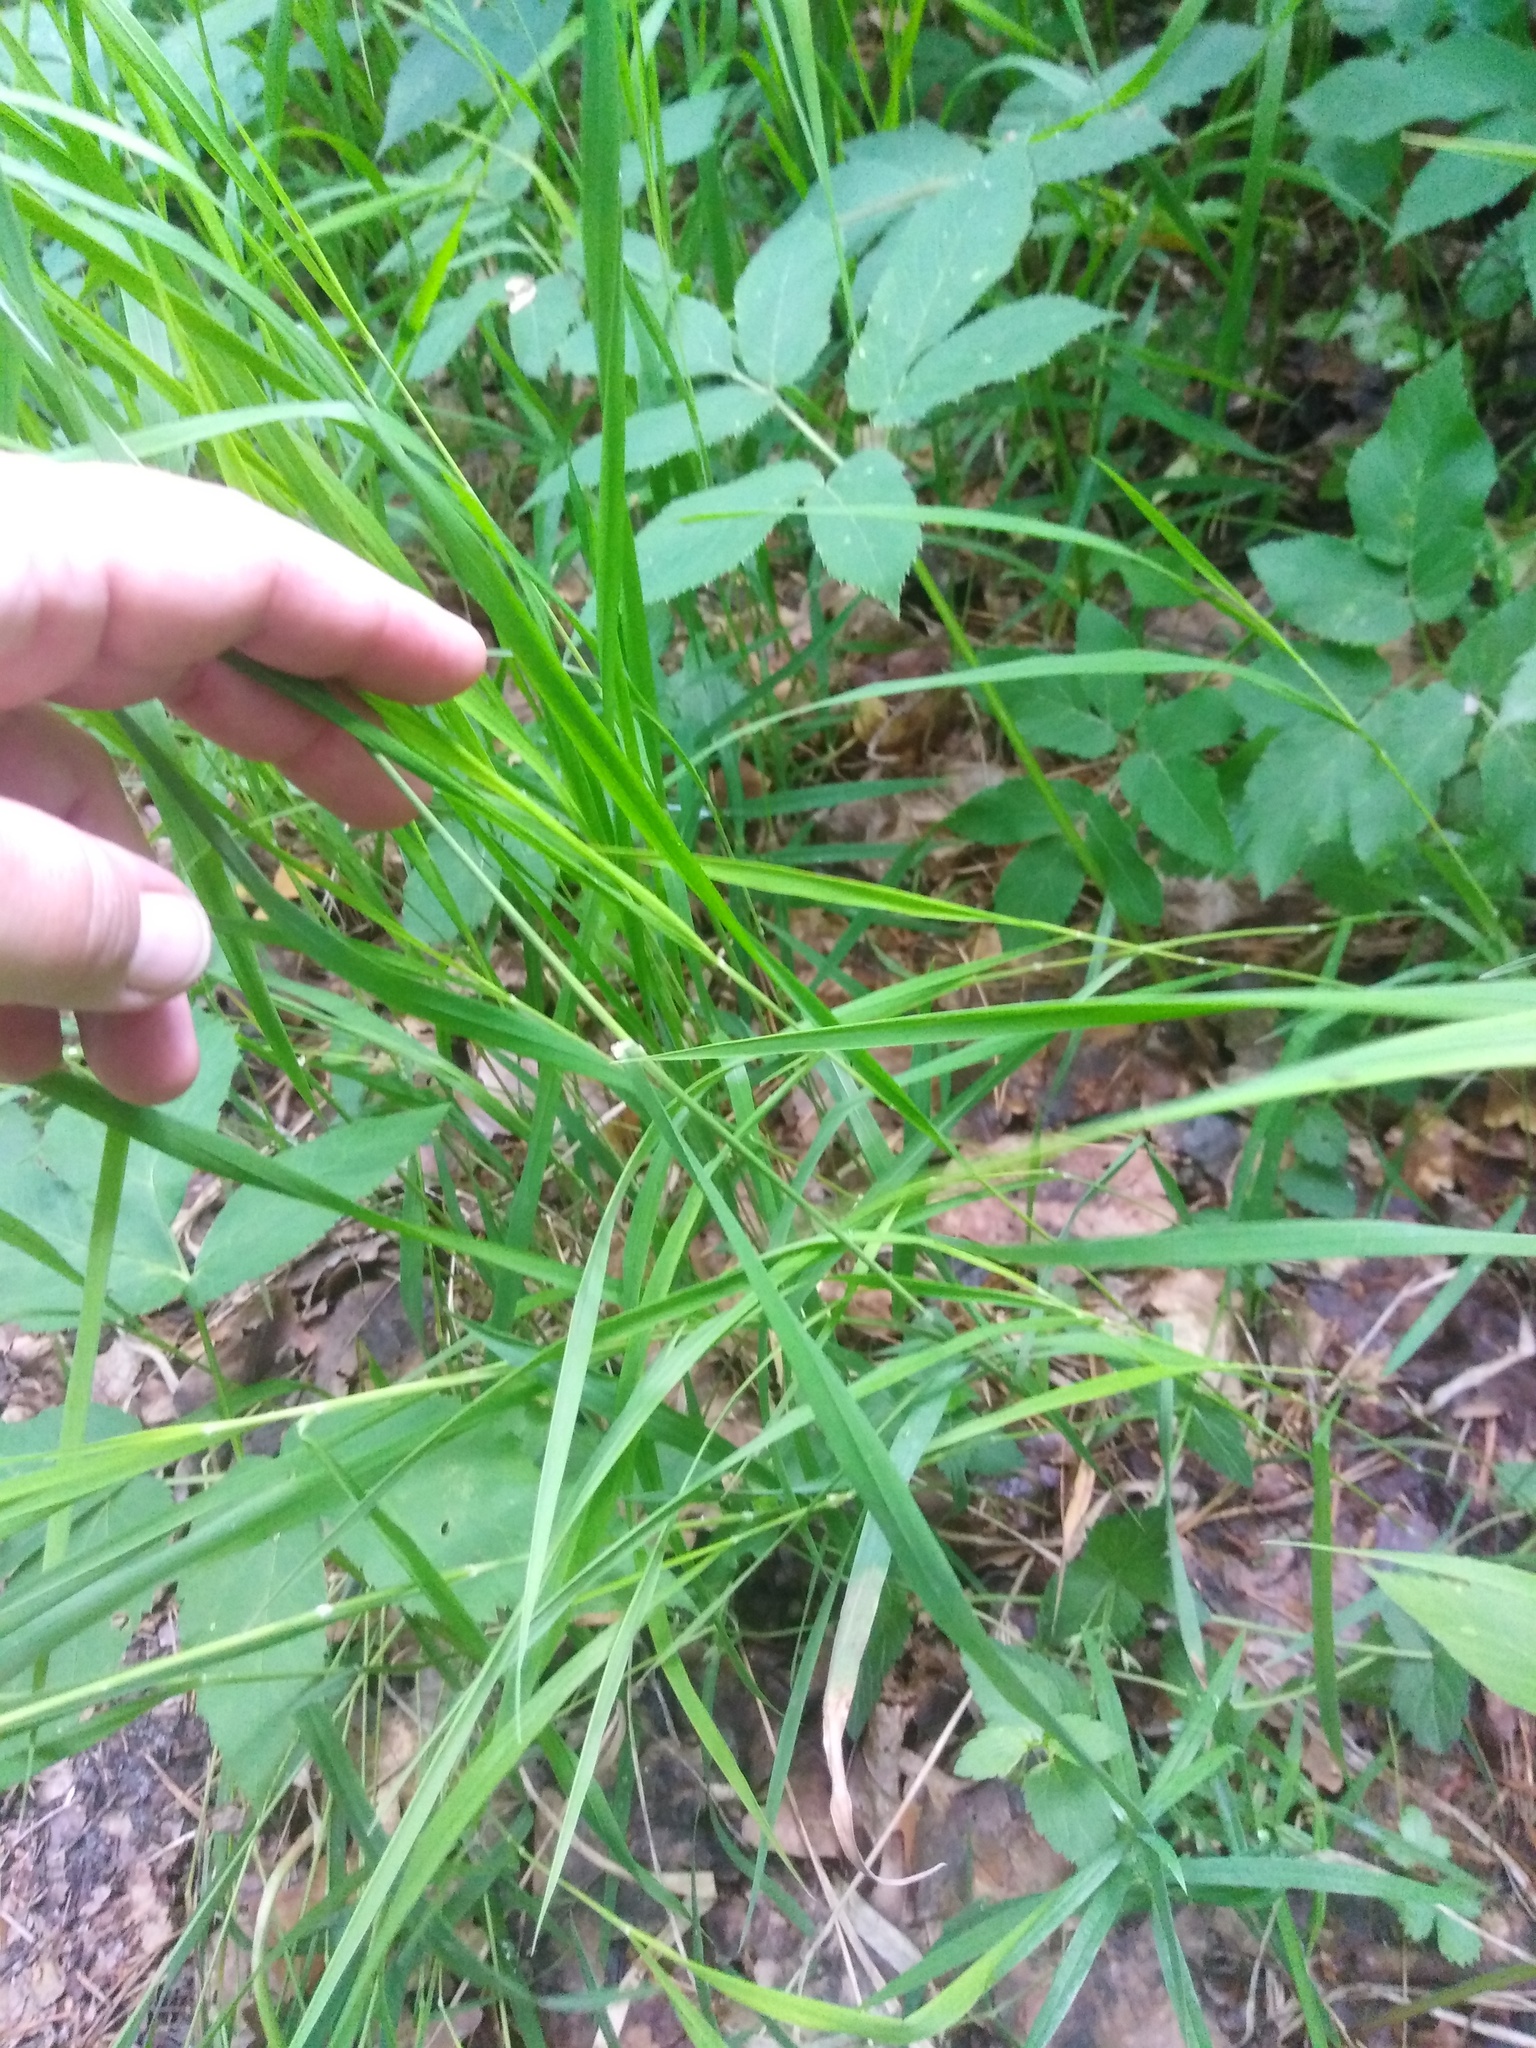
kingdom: Plantae
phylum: Tracheophyta
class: Liliopsida
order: Poales
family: Poaceae
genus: Brachypodium
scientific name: Brachypodium pinnatum
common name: Tor grass
